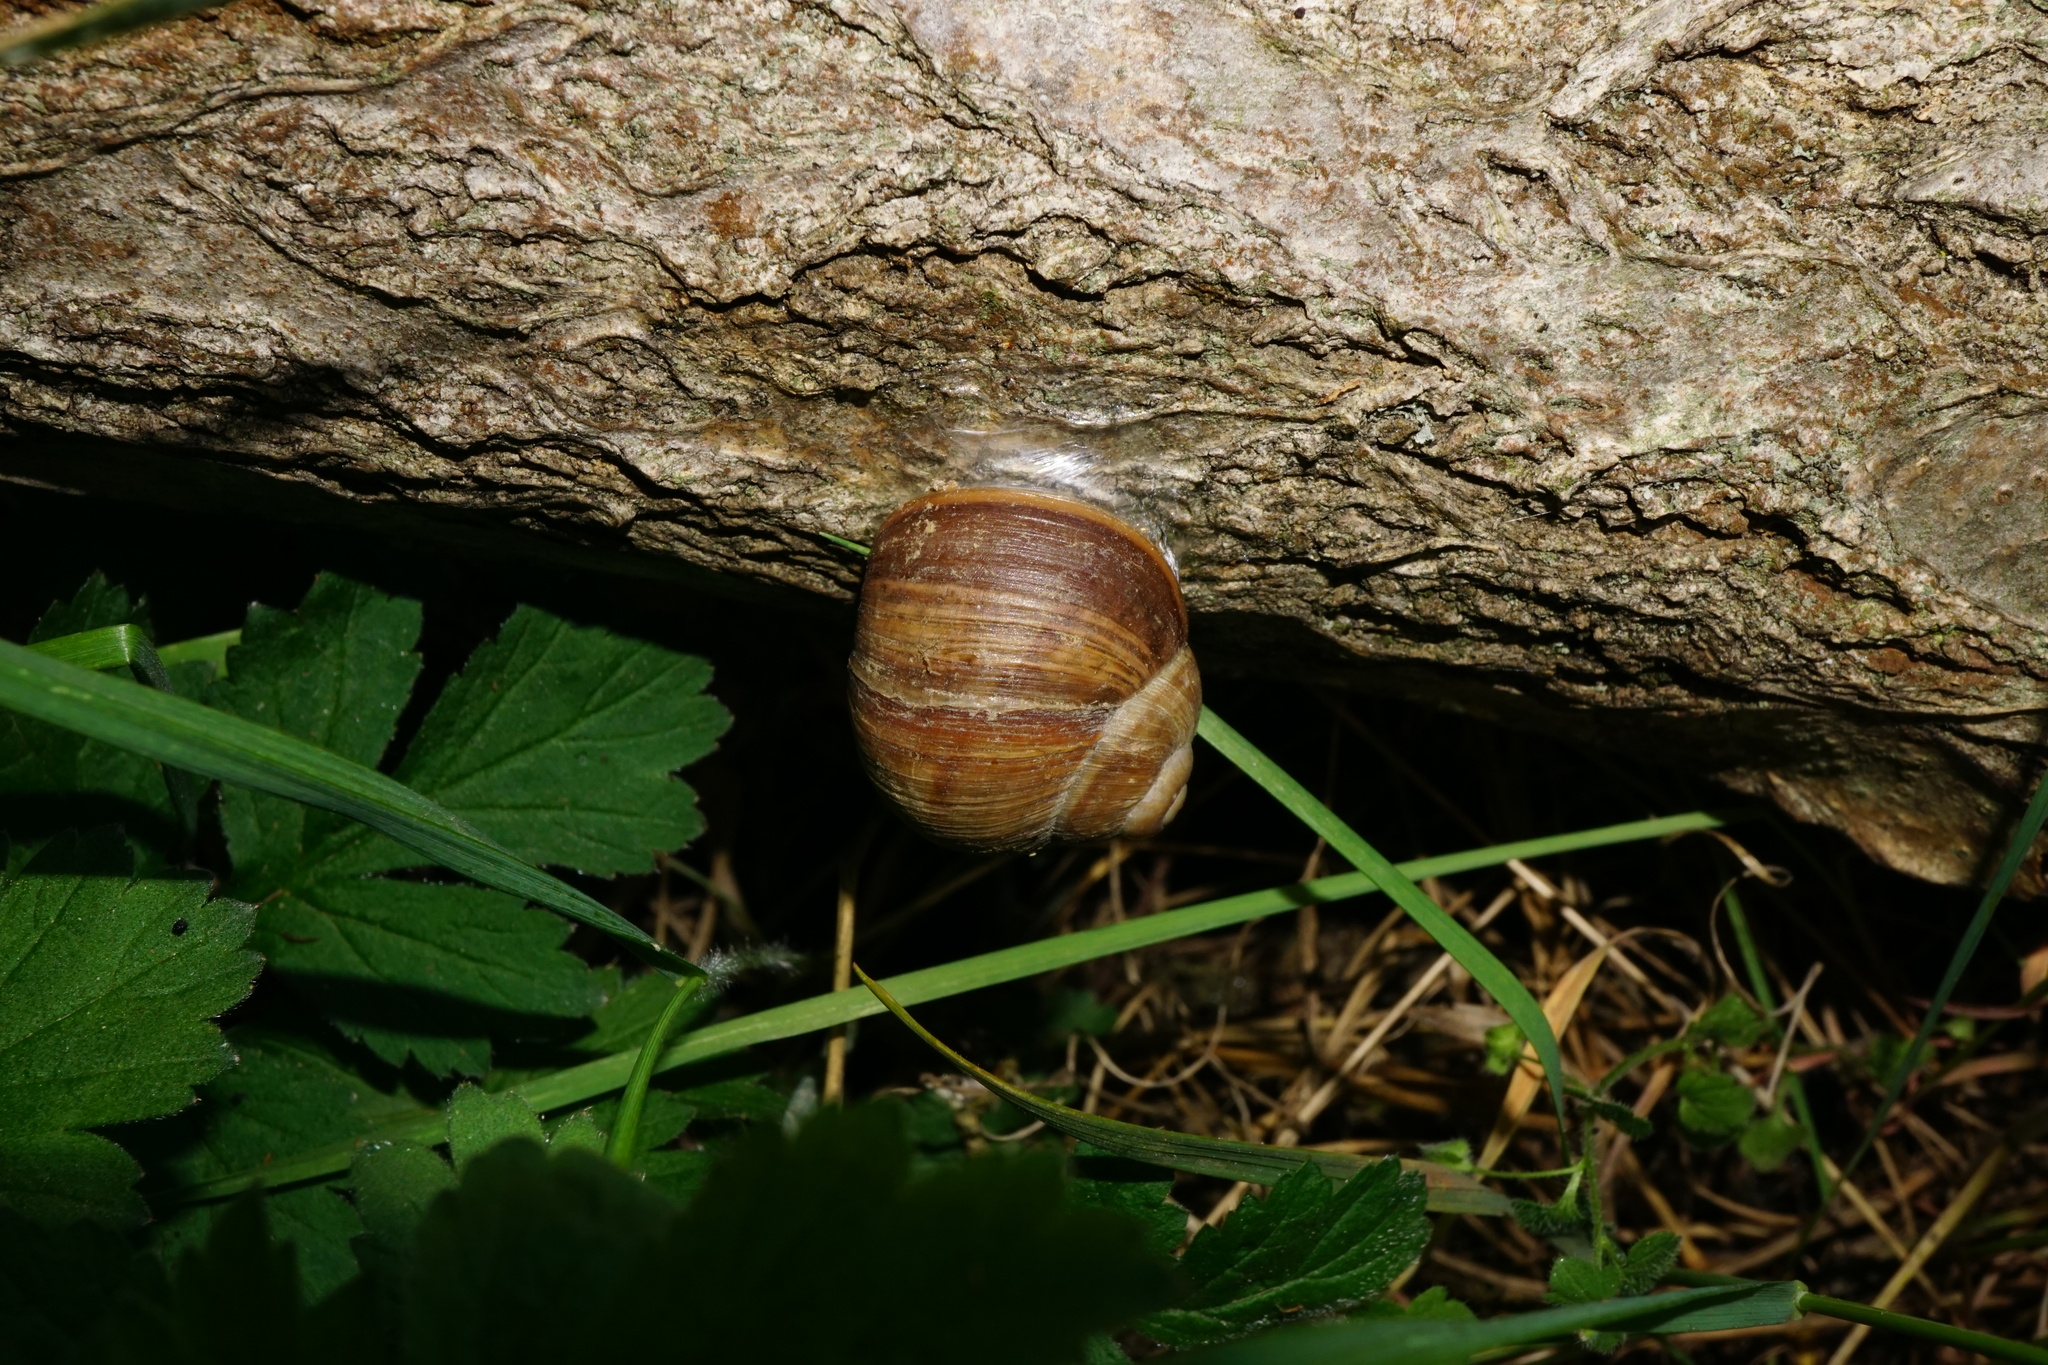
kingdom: Animalia
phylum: Mollusca
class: Gastropoda
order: Stylommatophora
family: Helicidae
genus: Helix
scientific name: Helix pomatia
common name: Roman snail
